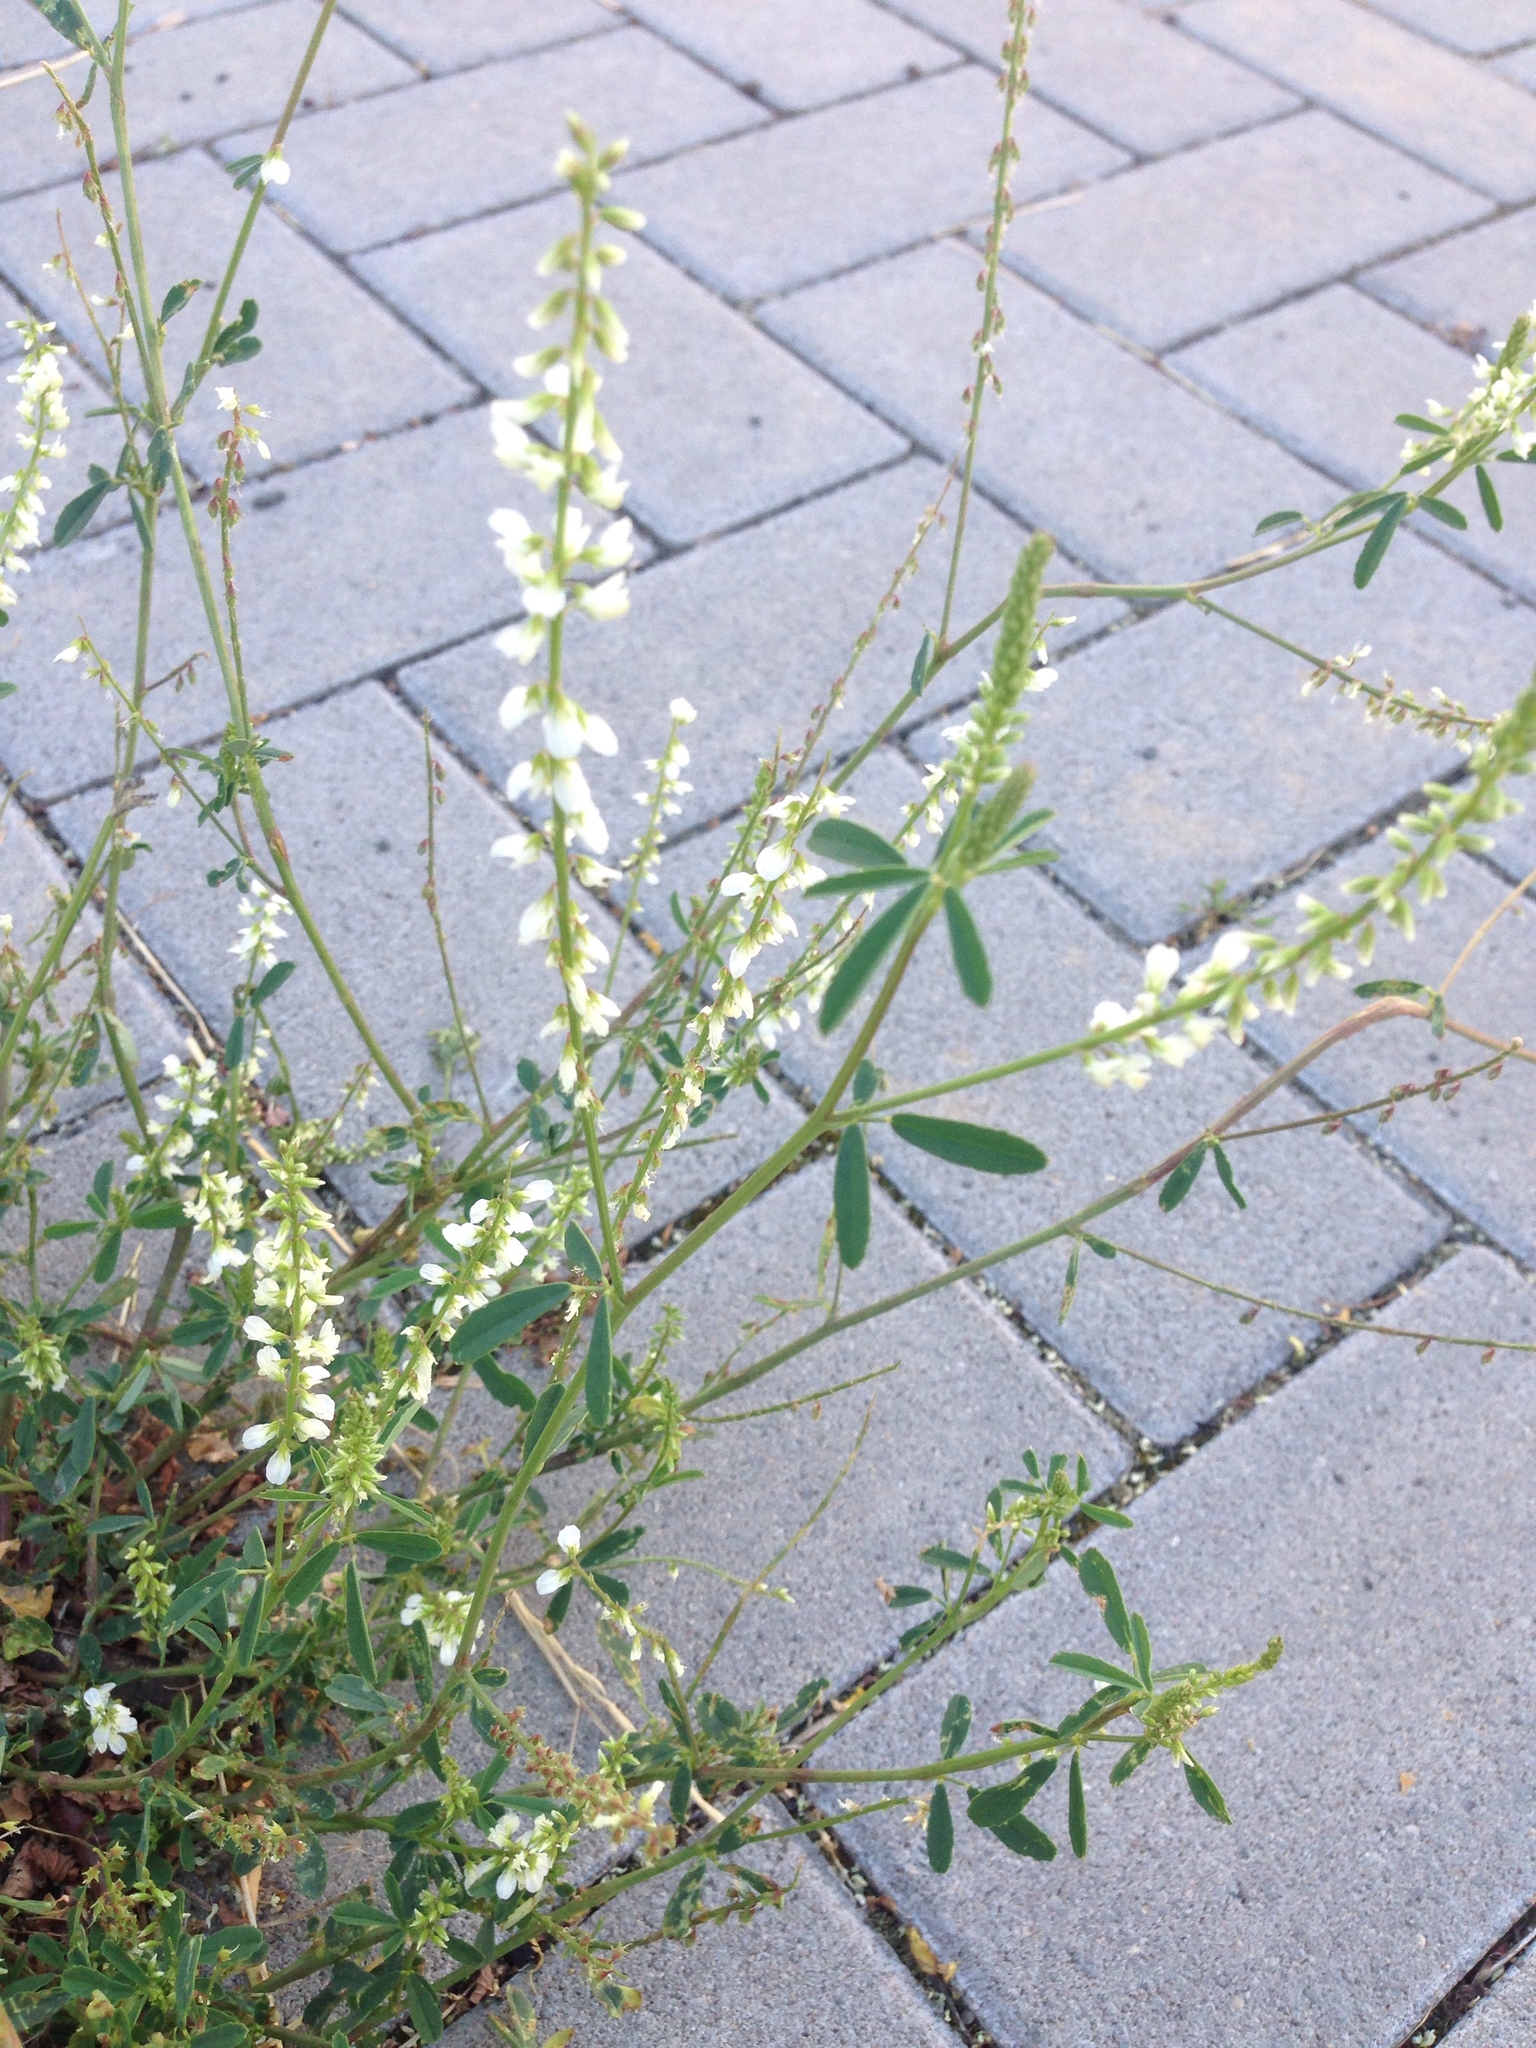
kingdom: Plantae
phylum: Tracheophyta
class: Magnoliopsida
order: Fabales
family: Fabaceae
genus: Melilotus
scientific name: Melilotus albus
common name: White melilot
